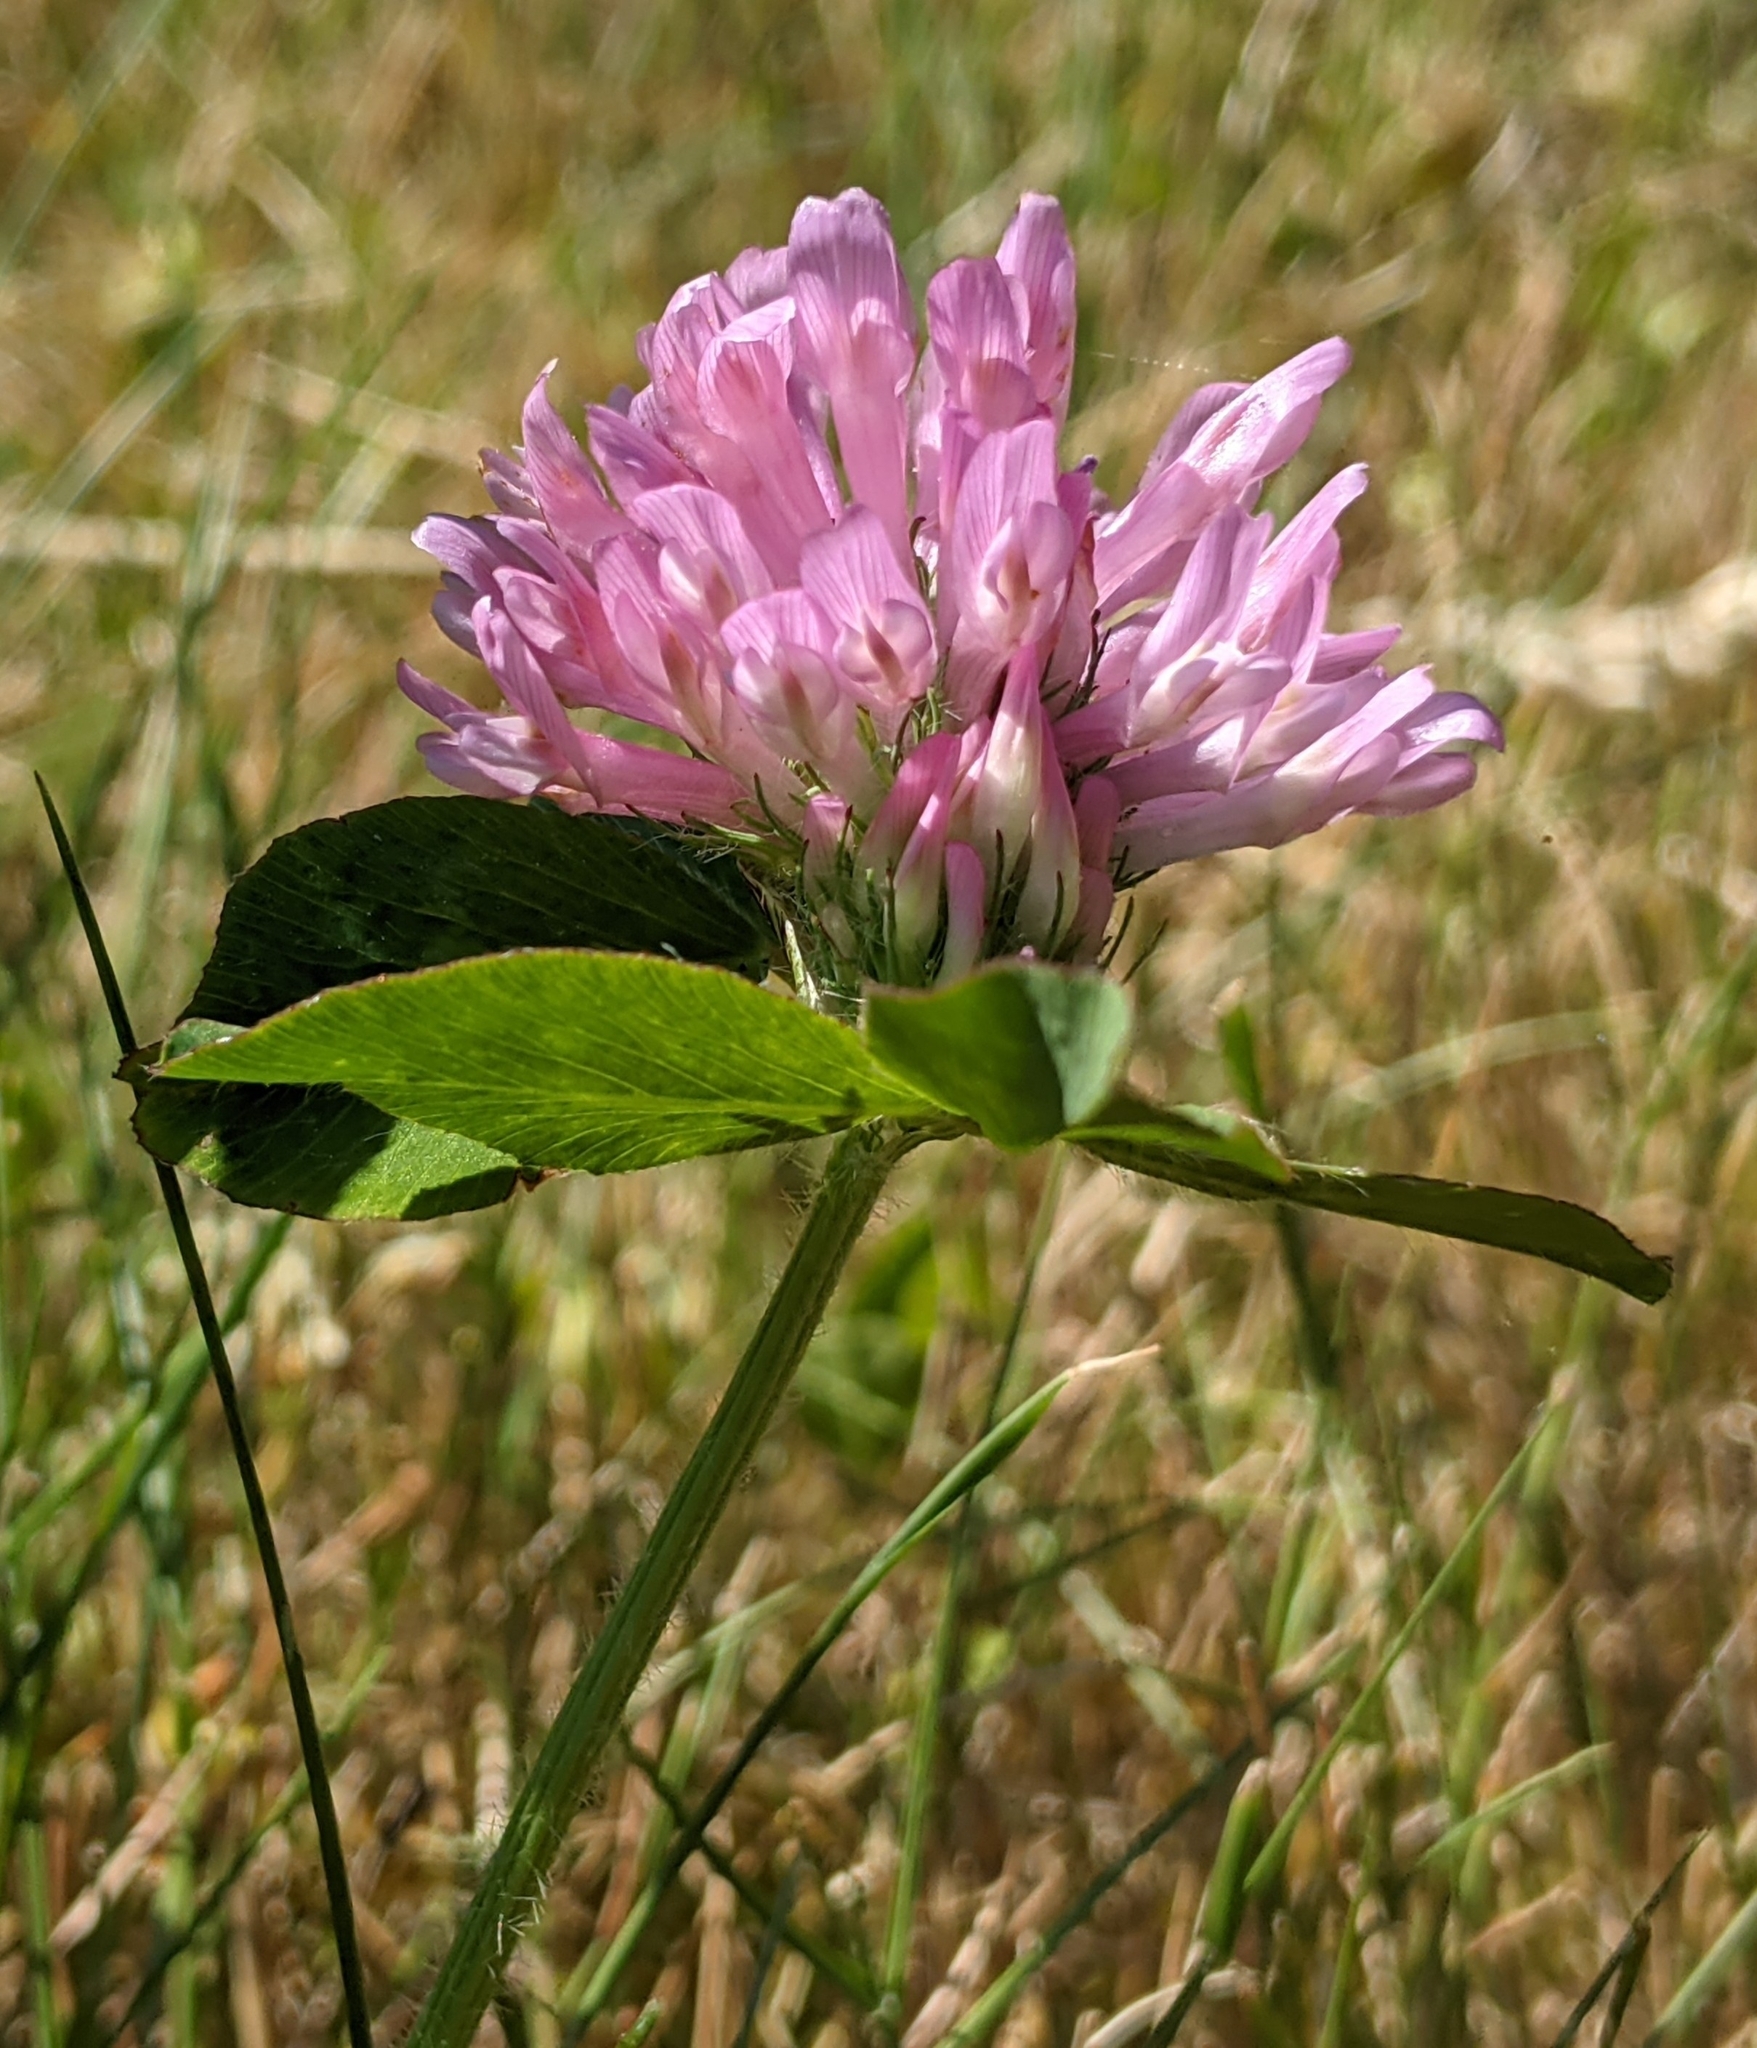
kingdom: Plantae
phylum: Tracheophyta
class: Magnoliopsida
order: Fabales
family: Fabaceae
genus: Trifolium
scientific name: Trifolium pratense
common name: Red clover
